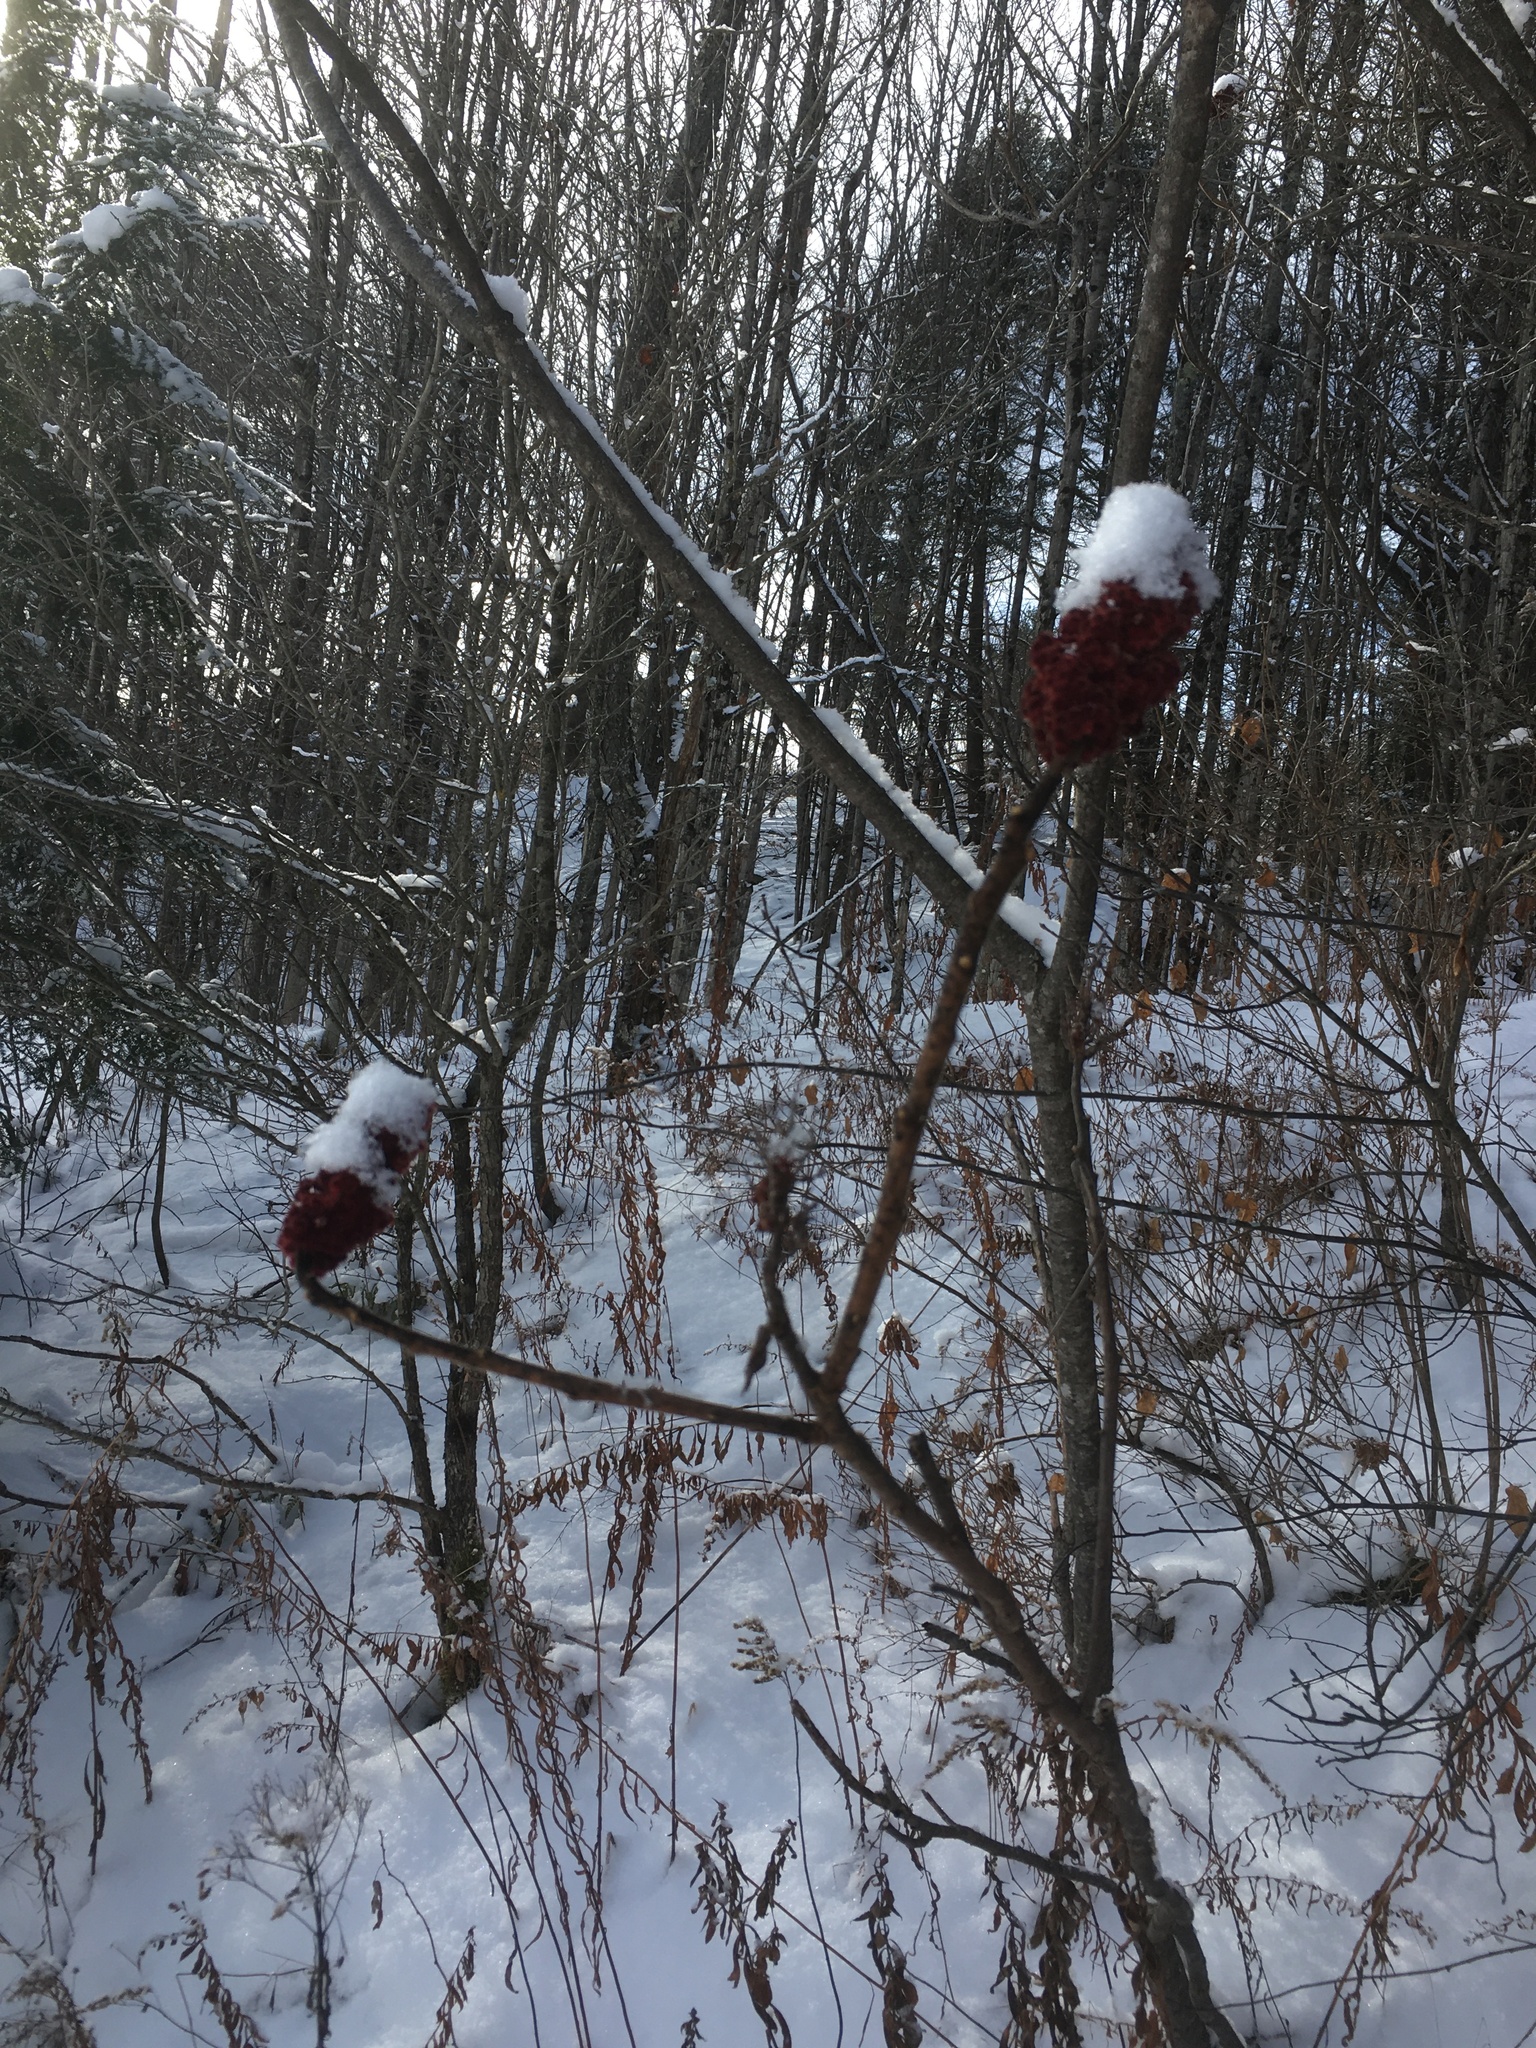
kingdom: Plantae
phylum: Tracheophyta
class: Magnoliopsida
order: Sapindales
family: Anacardiaceae
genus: Rhus
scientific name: Rhus typhina
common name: Staghorn sumac
